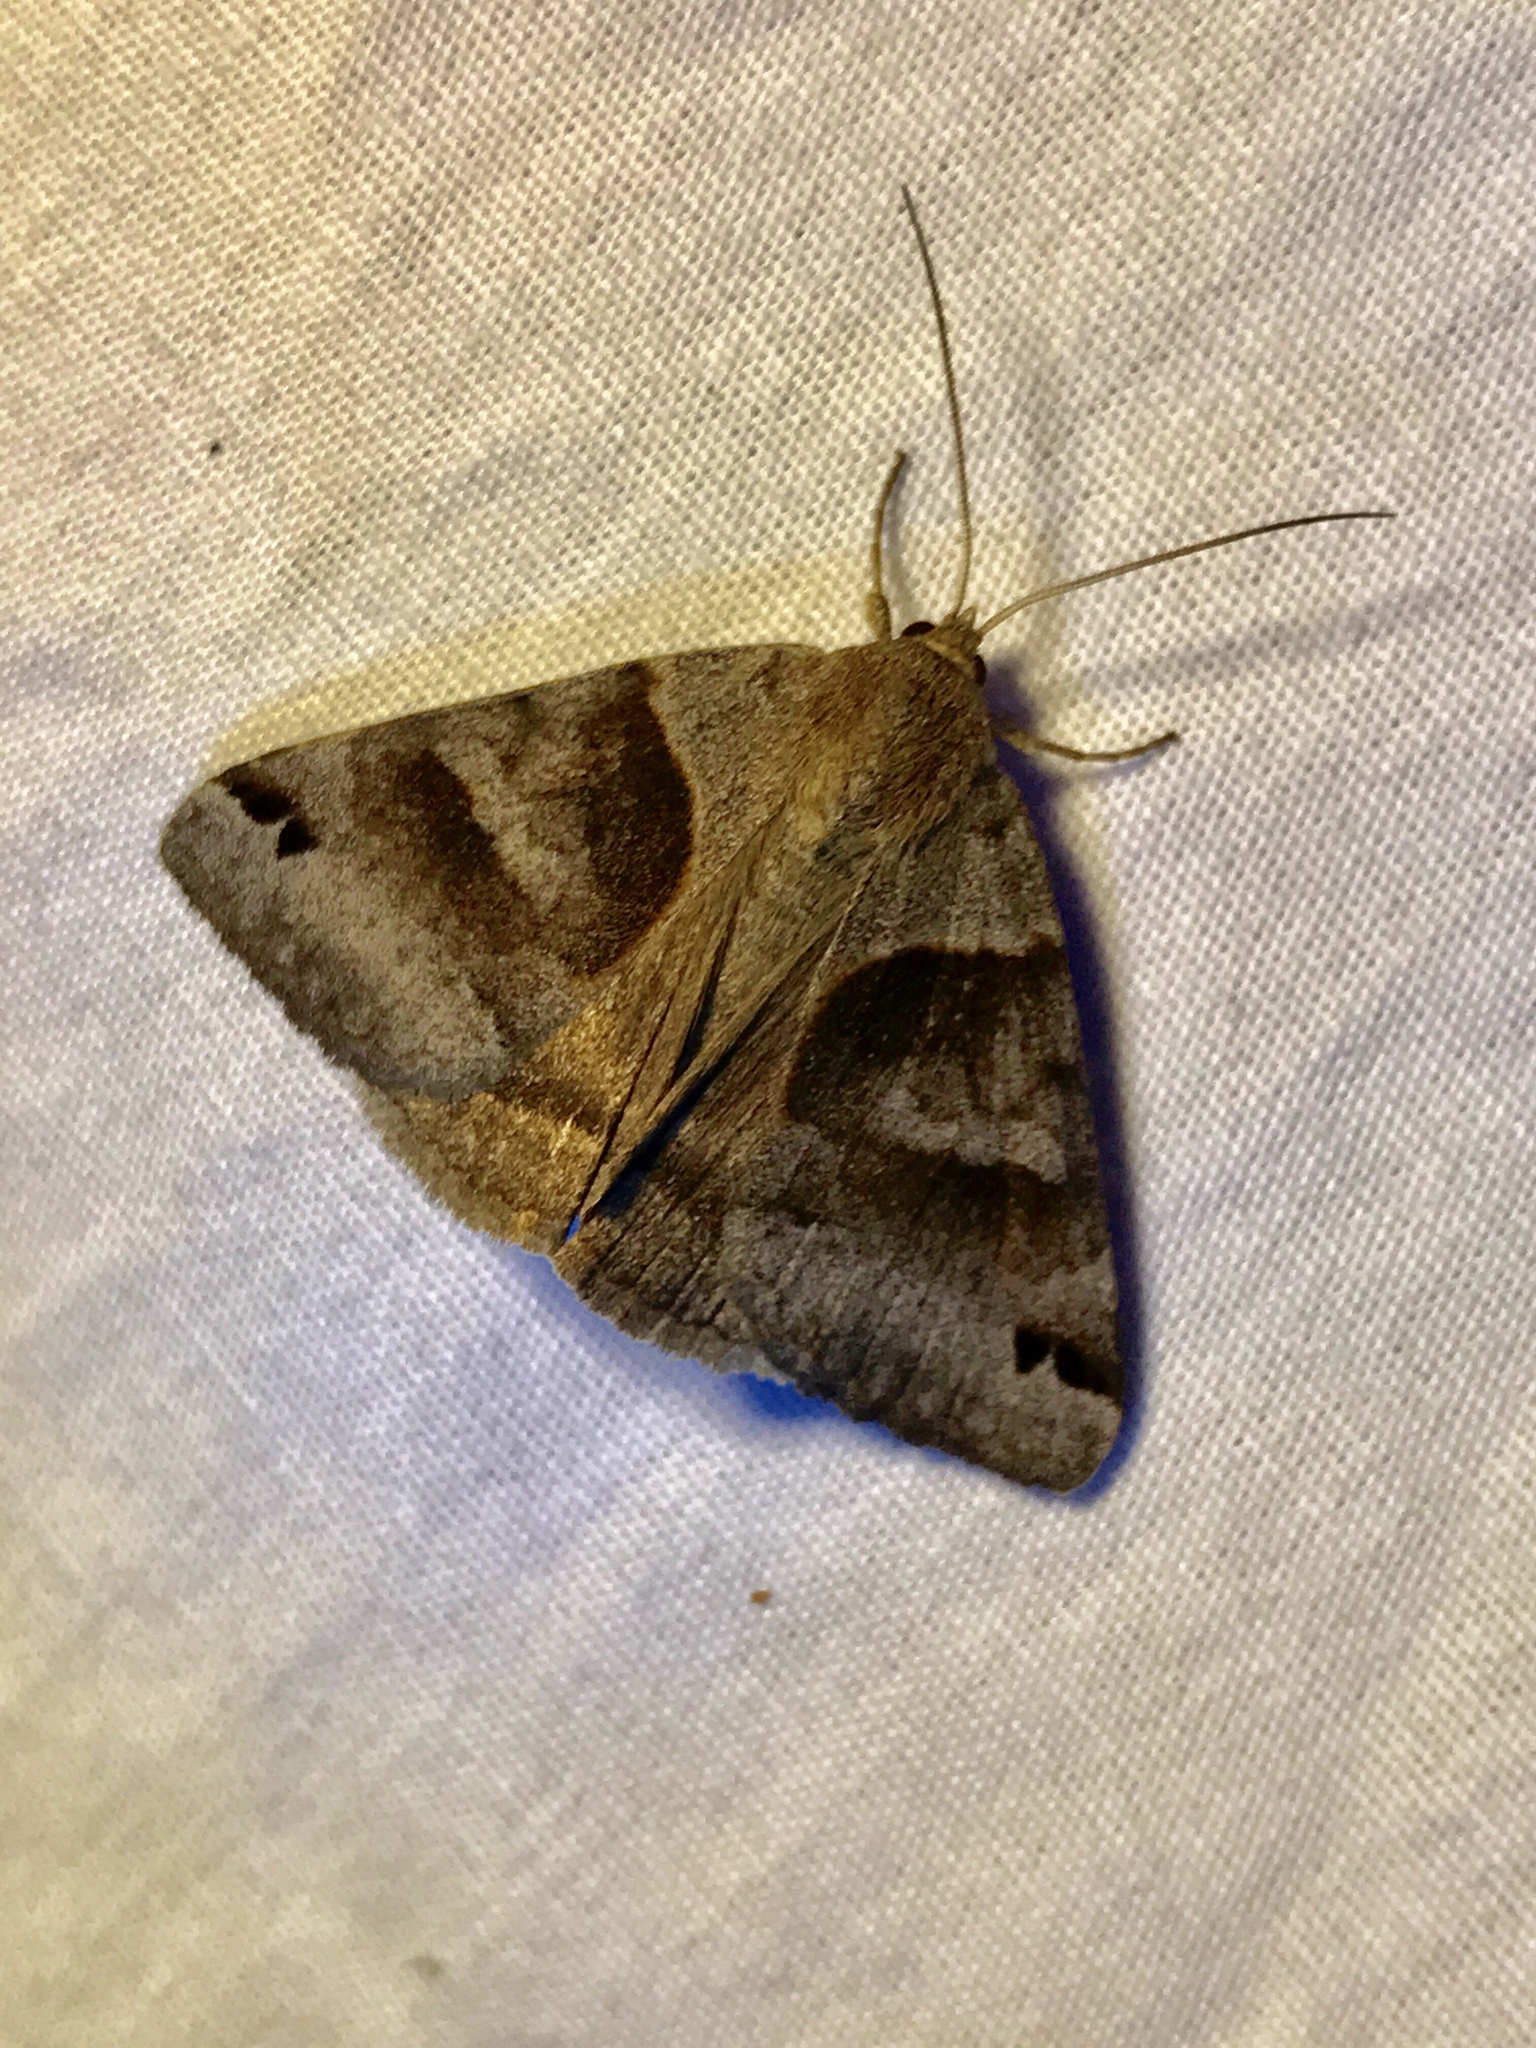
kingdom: Animalia
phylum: Arthropoda
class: Insecta
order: Lepidoptera
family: Erebidae
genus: Caenurgina
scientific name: Caenurgina erechtea
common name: Forage looper moth
